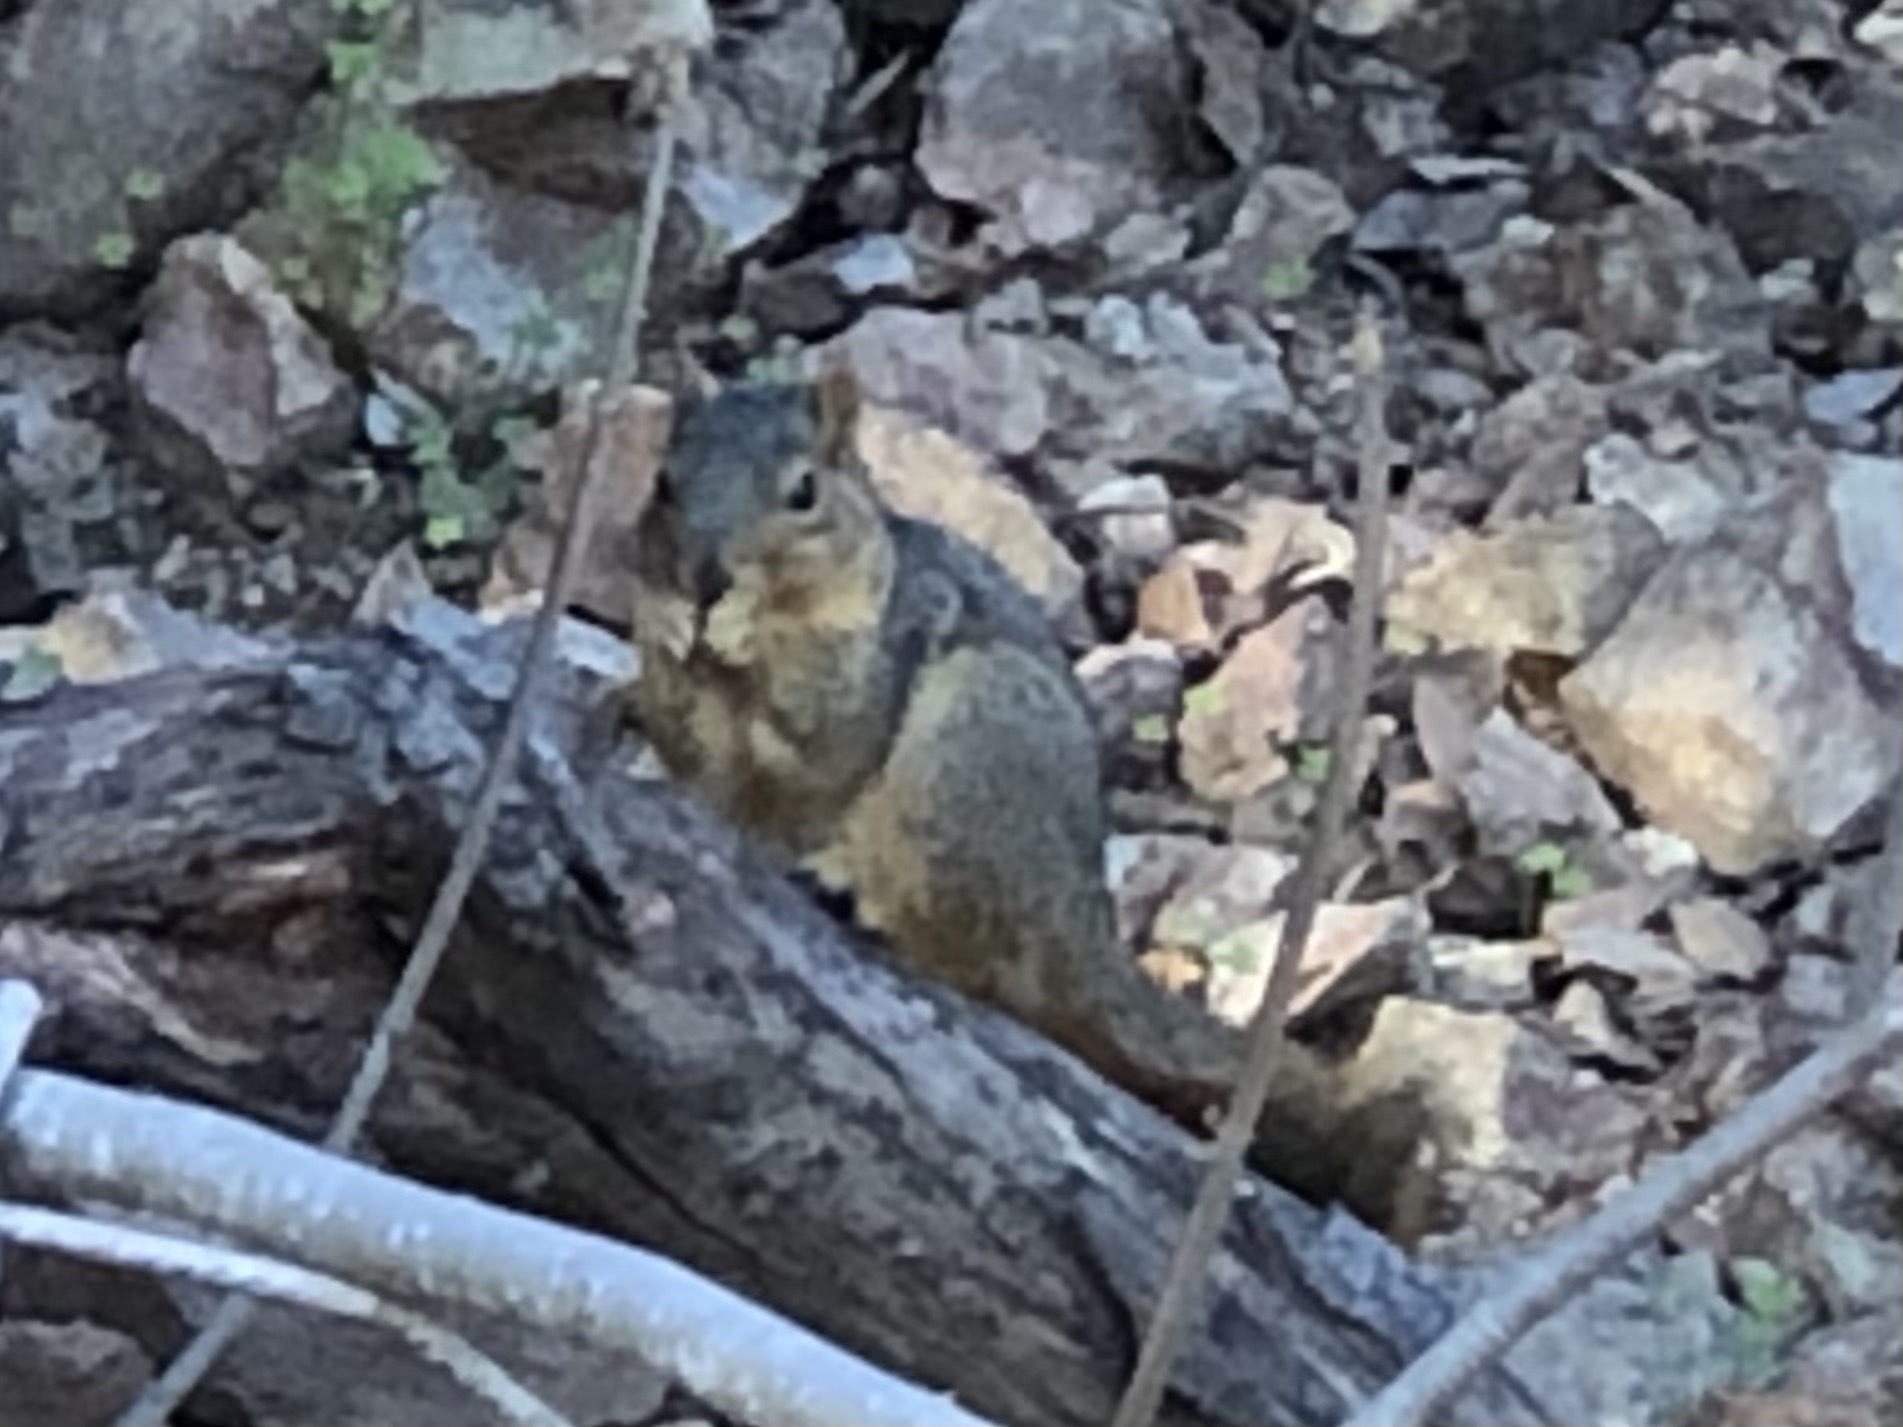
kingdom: Animalia
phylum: Chordata
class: Mammalia
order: Rodentia
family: Sciuridae
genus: Sciurus
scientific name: Sciurus niger
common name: Fox squirrel
